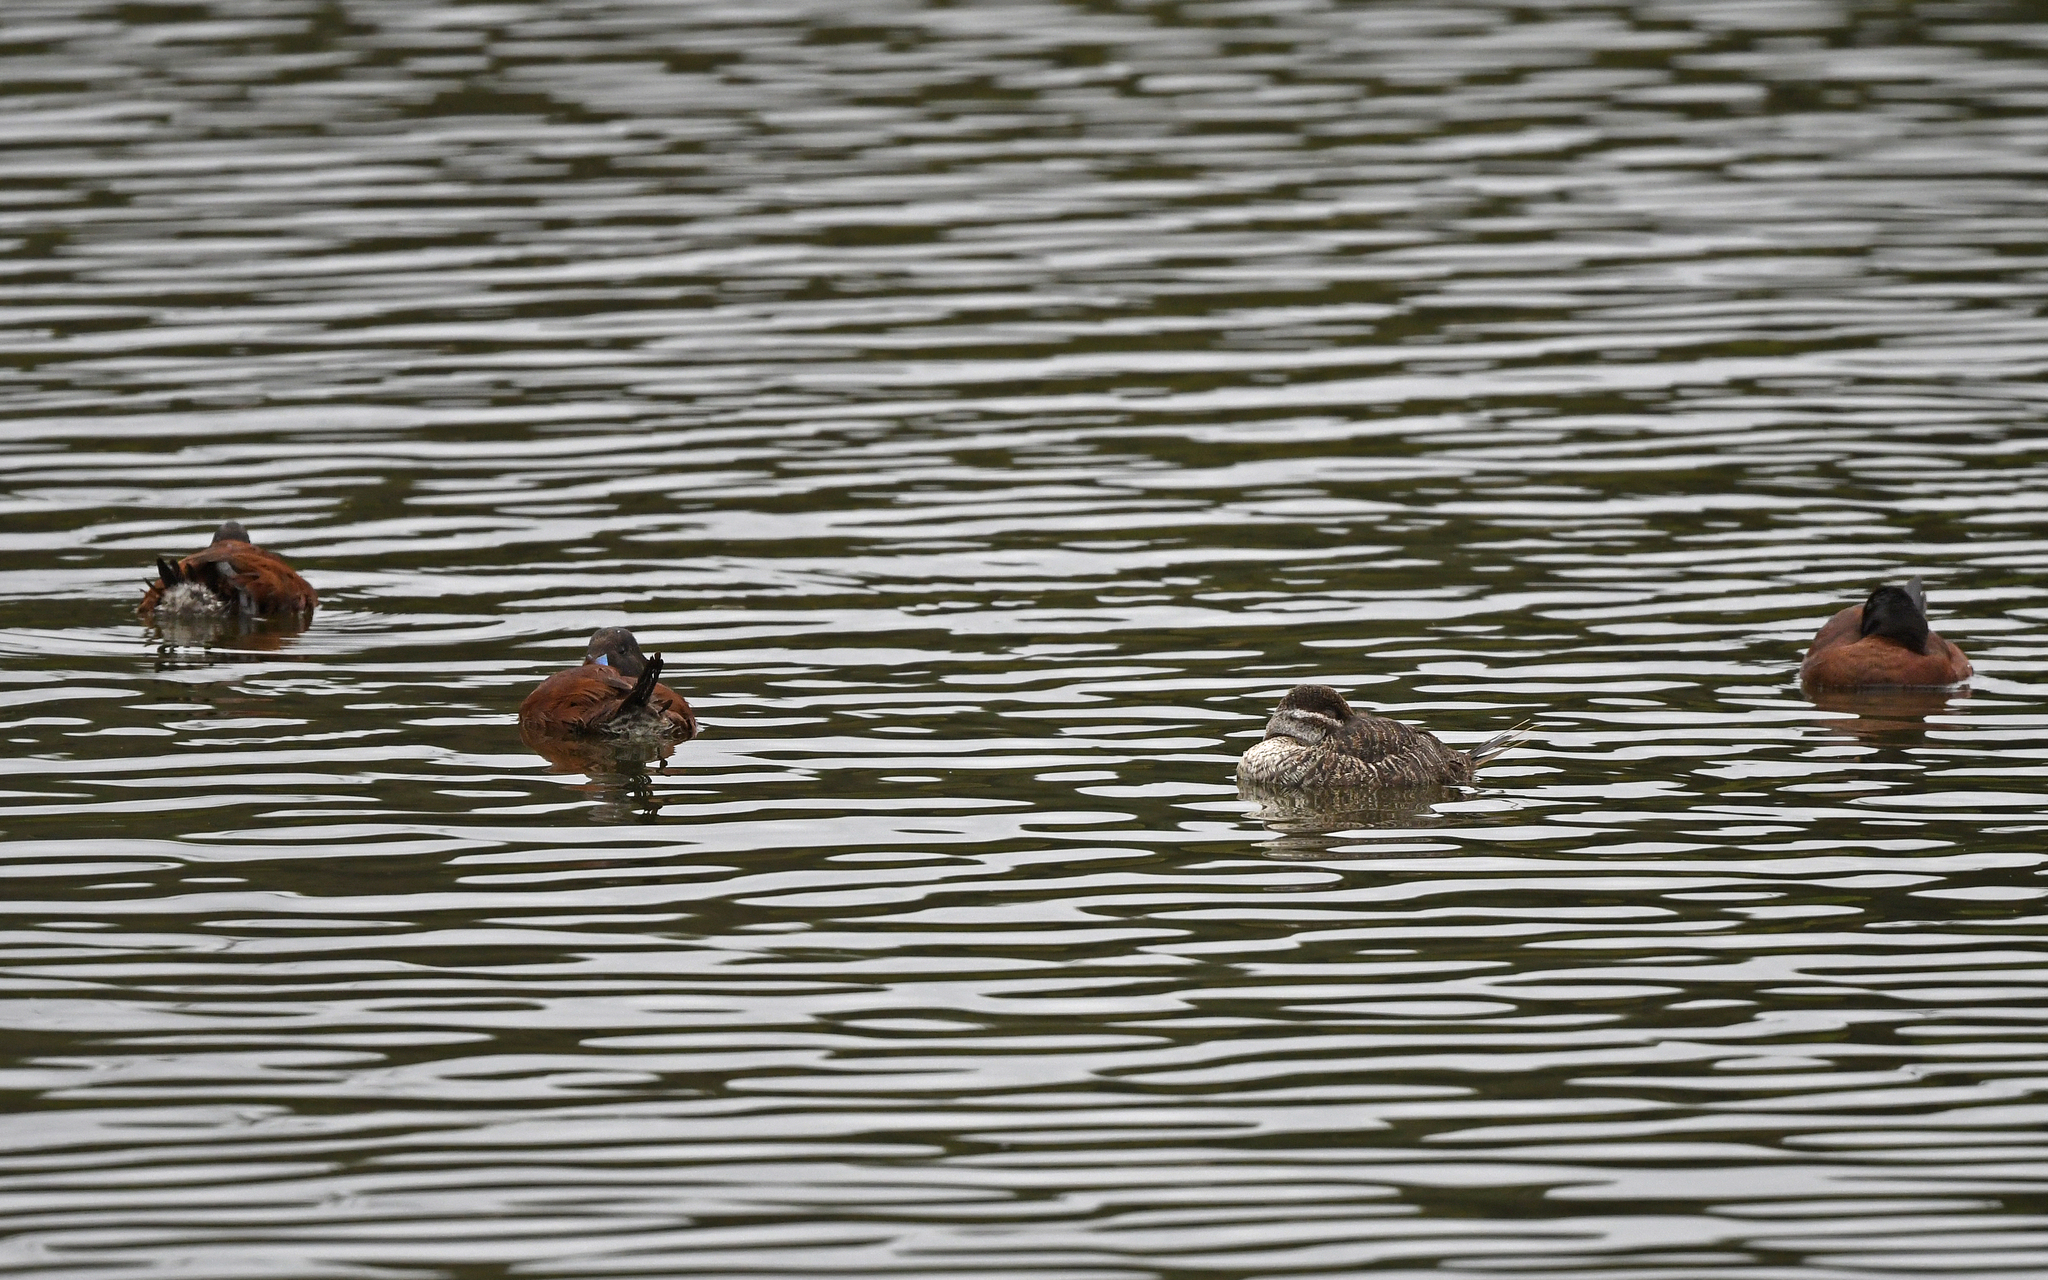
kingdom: Animalia
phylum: Chordata
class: Aves
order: Anseriformes
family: Anatidae
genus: Oxyura
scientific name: Oxyura vittata
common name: Lake duck
